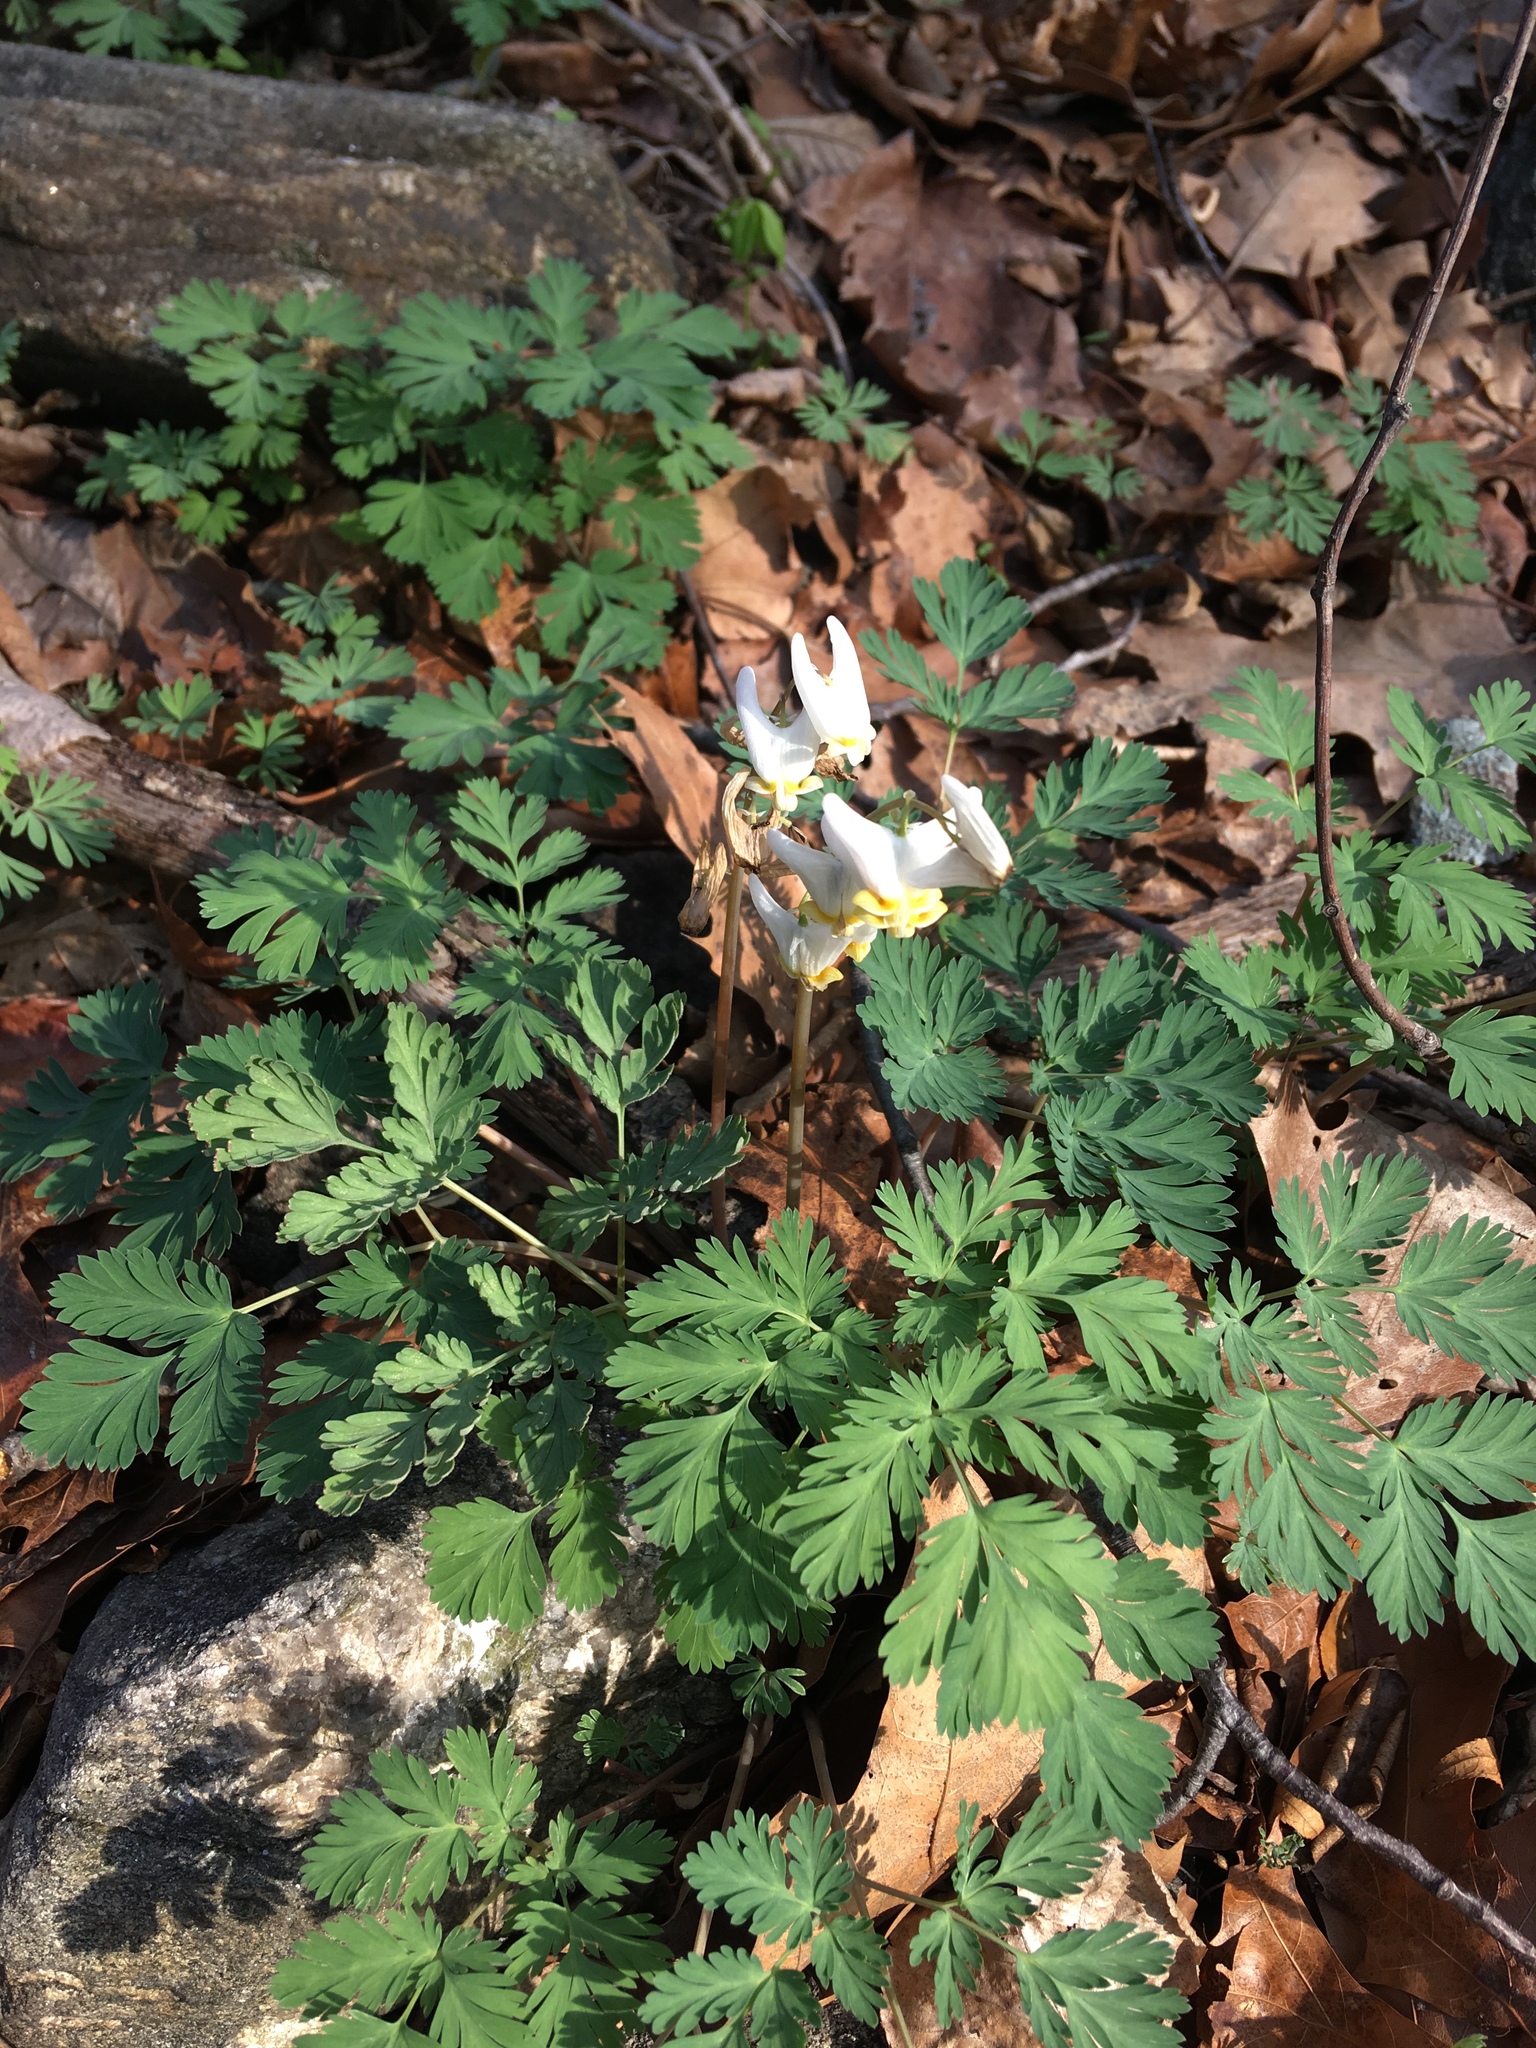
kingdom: Plantae
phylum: Tracheophyta
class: Magnoliopsida
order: Ranunculales
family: Papaveraceae
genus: Dicentra
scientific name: Dicentra cucullaria
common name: Dutchman's breeches
